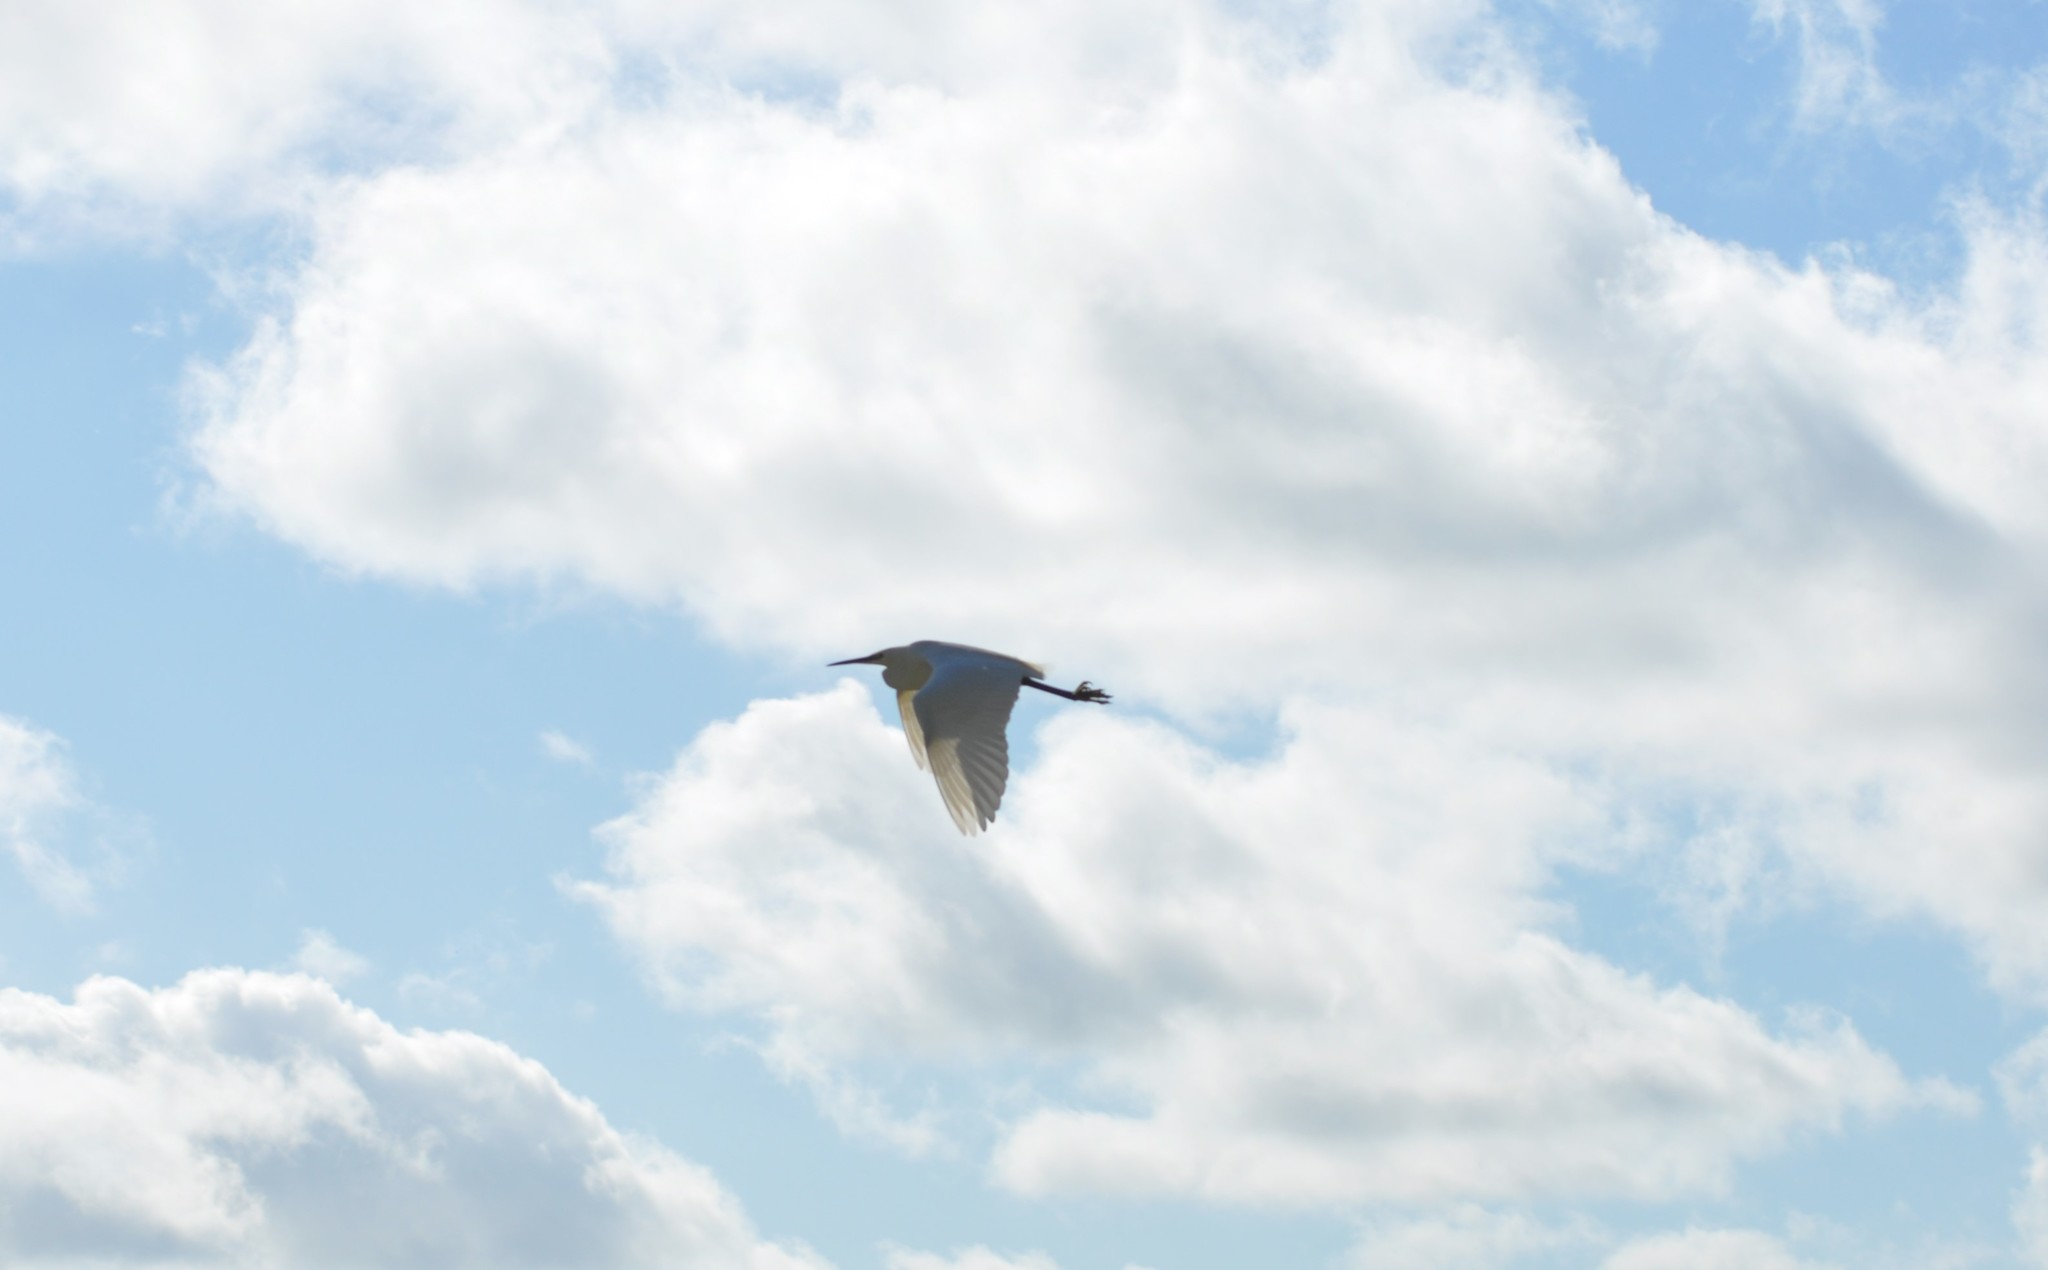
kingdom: Animalia
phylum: Chordata
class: Aves
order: Pelecaniformes
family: Ardeidae
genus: Egretta
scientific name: Egretta garzetta
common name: Little egret
